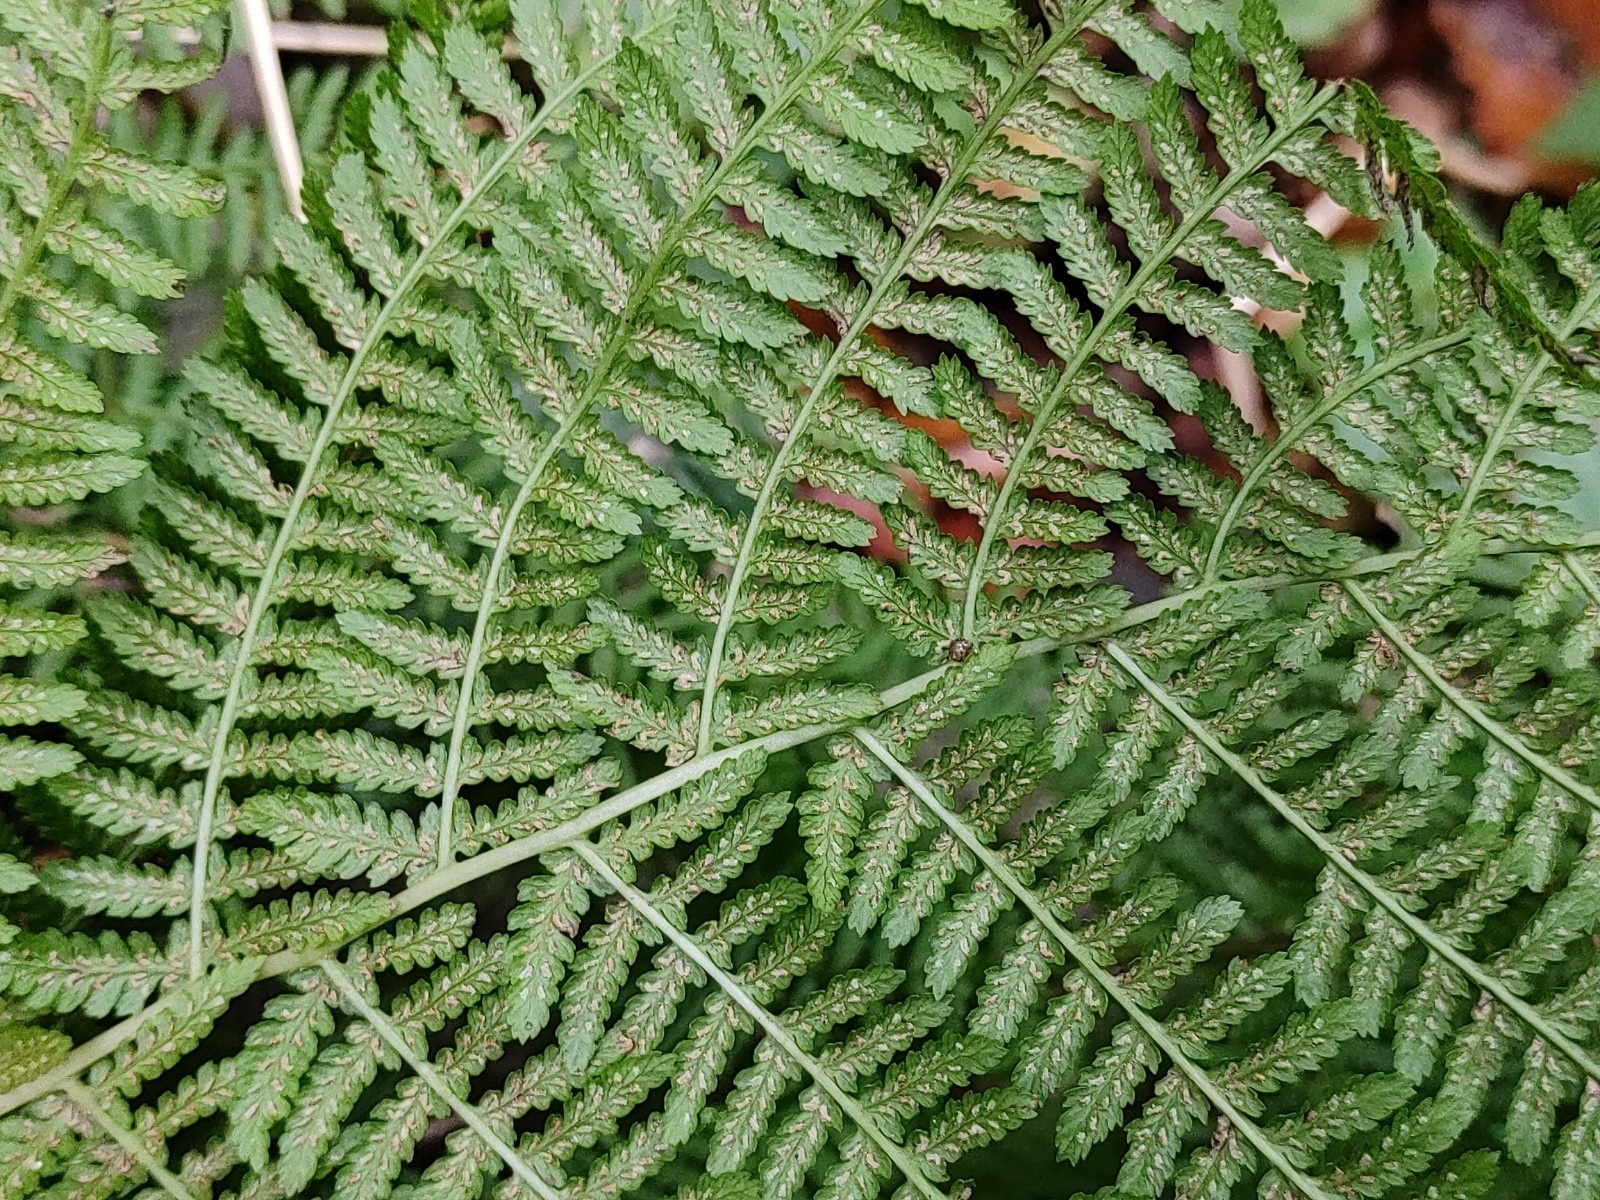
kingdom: Plantae
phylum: Tracheophyta
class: Polypodiopsida
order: Polypodiales
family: Athyriaceae
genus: Athyrium
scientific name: Athyrium filix-femina
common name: Lady fern
